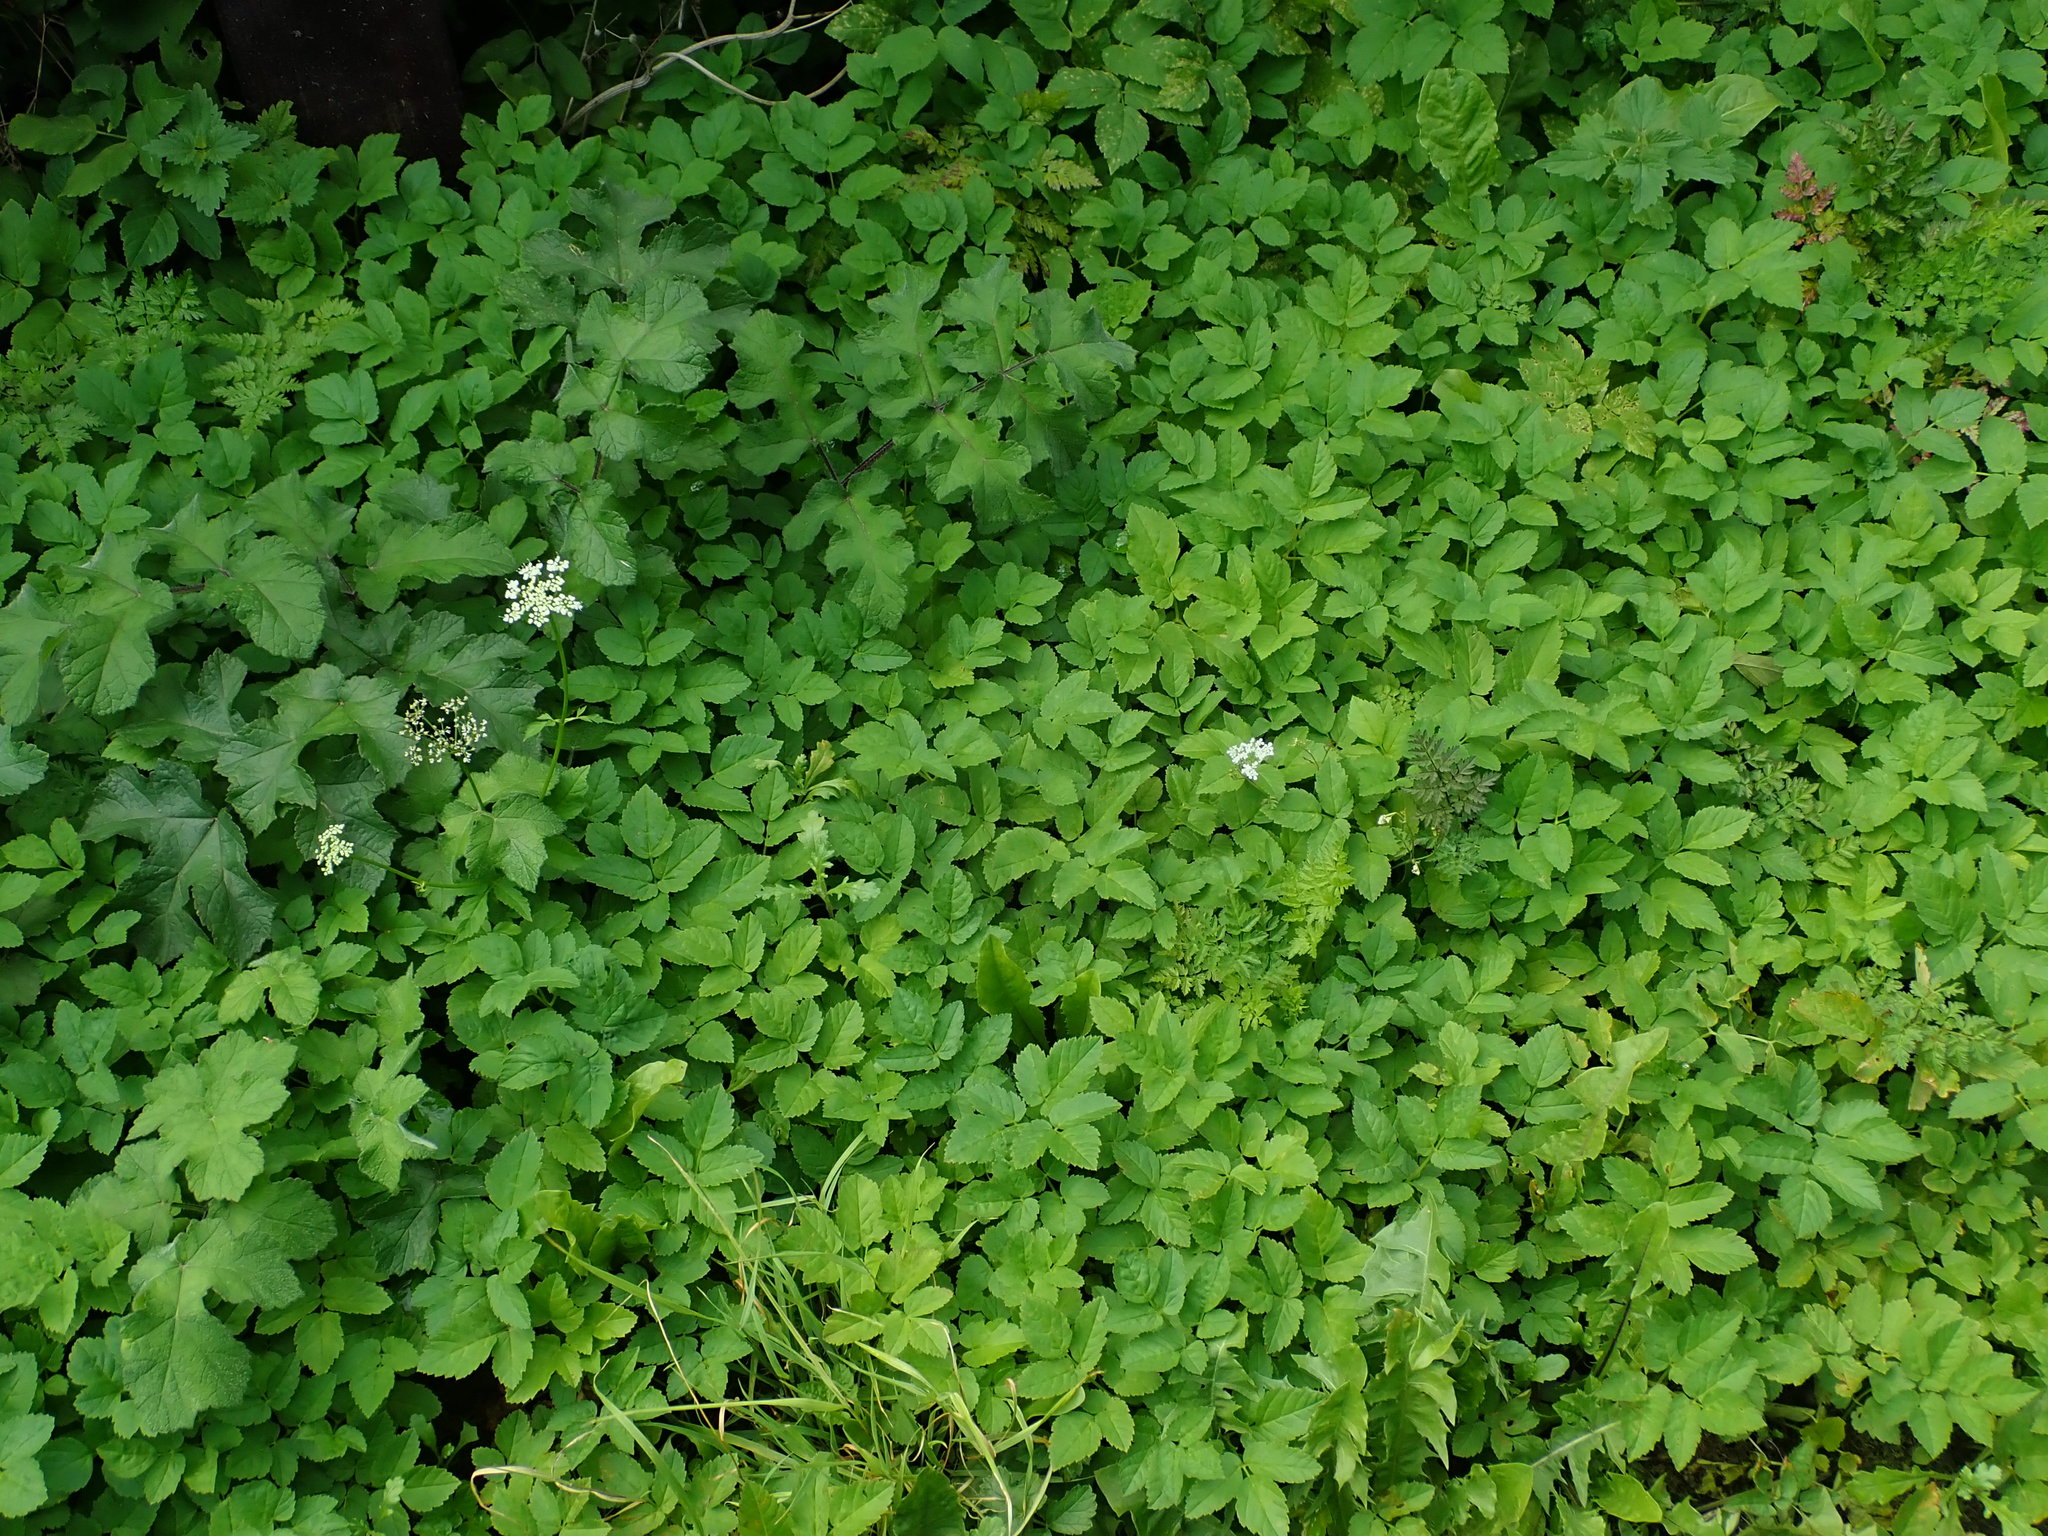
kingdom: Plantae
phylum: Tracheophyta
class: Magnoliopsida
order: Apiales
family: Apiaceae
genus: Aegopodium
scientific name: Aegopodium podagraria
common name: Ground-elder
